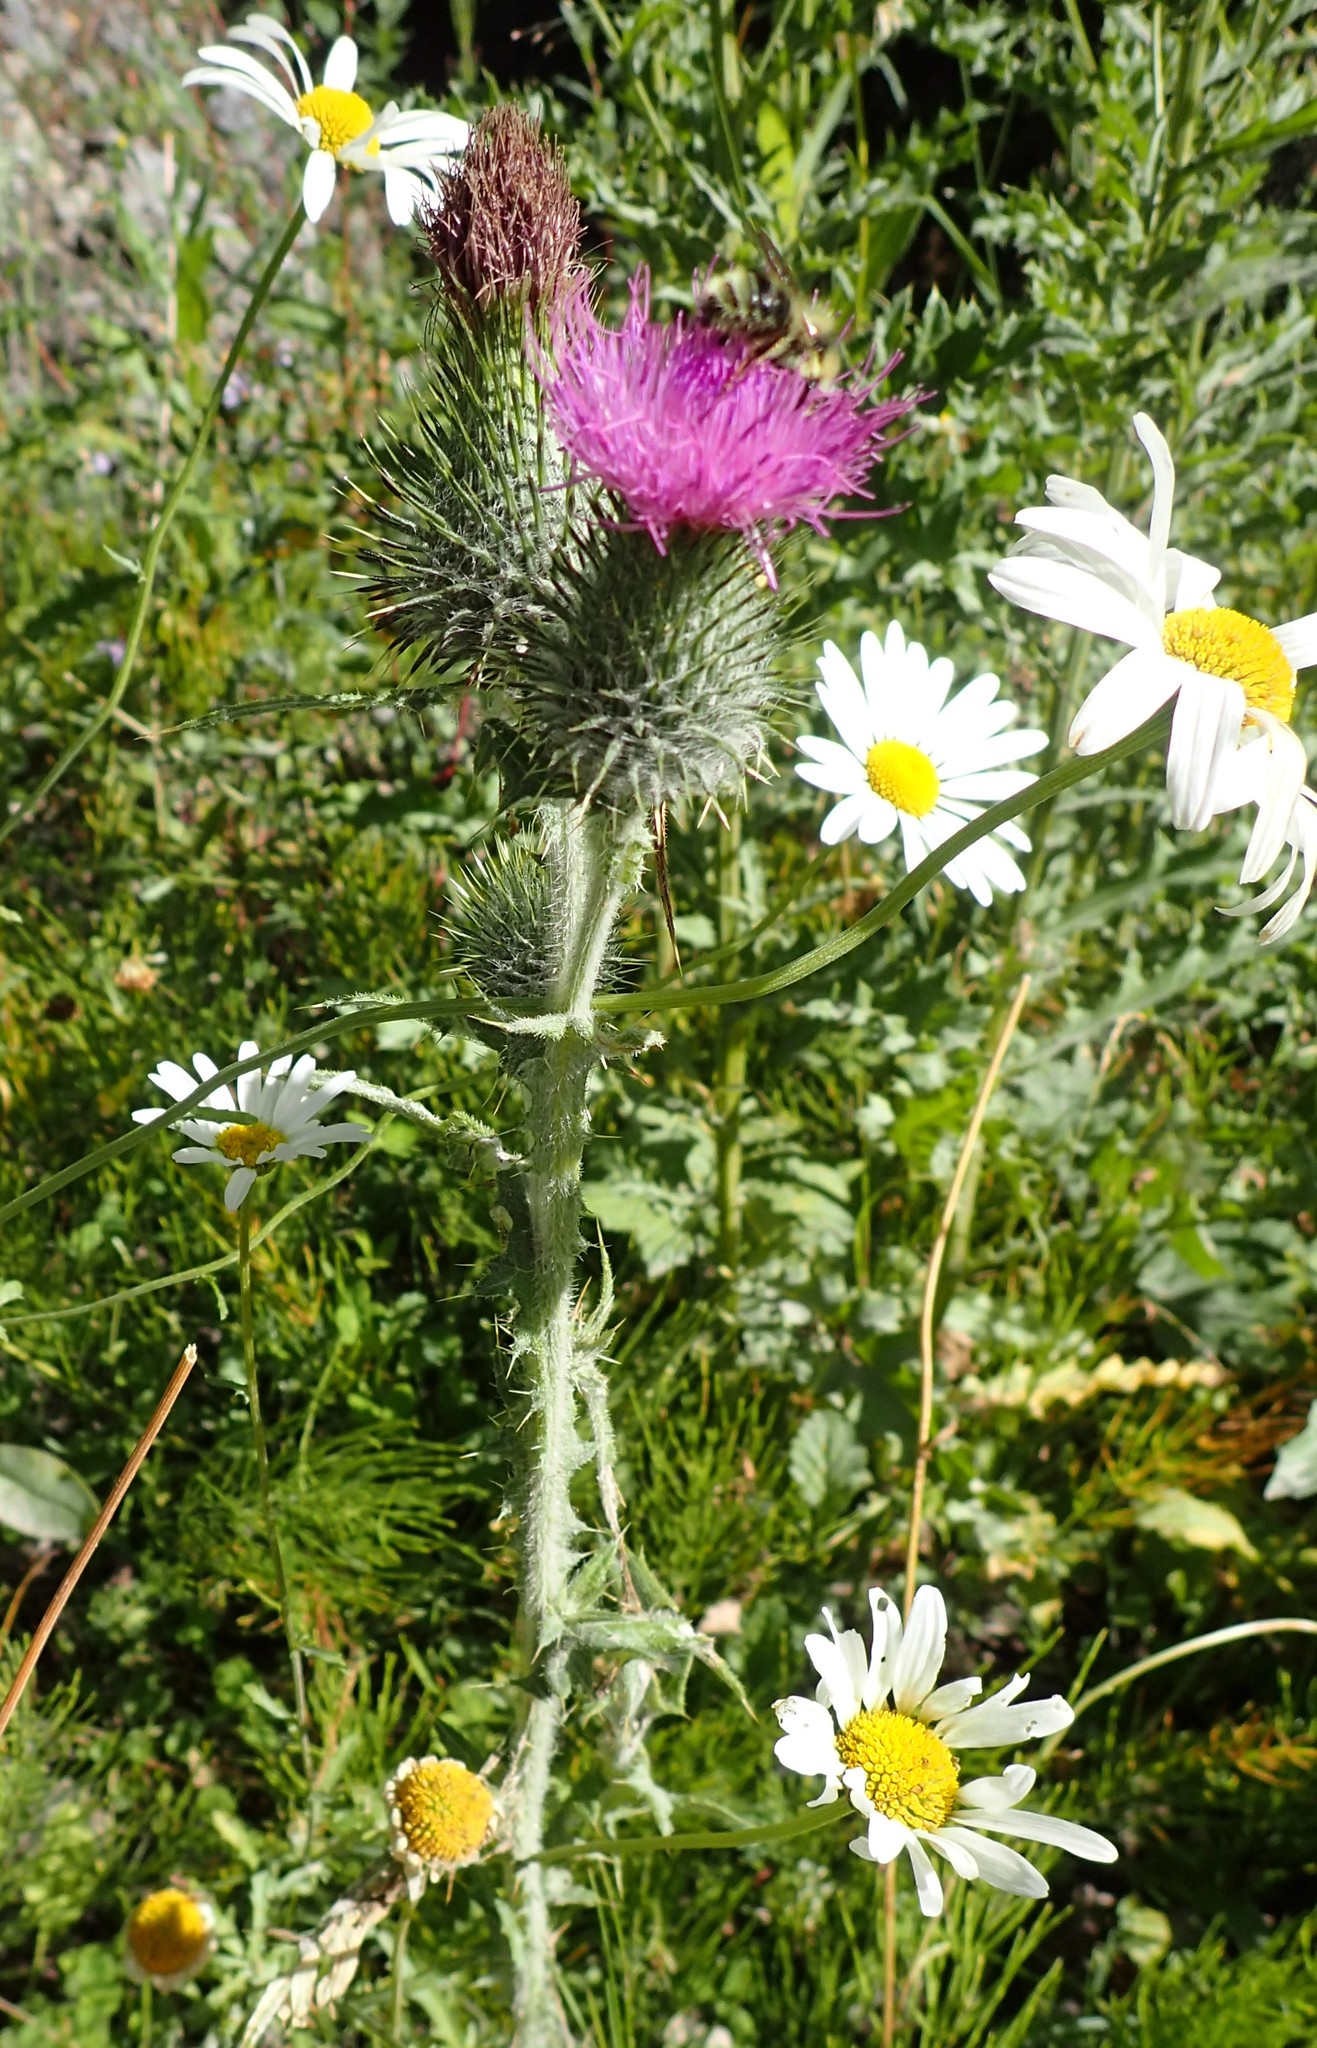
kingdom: Plantae
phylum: Tracheophyta
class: Magnoliopsida
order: Asterales
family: Asteraceae
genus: Cirsium
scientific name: Cirsium vulgare
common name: Bull thistle
